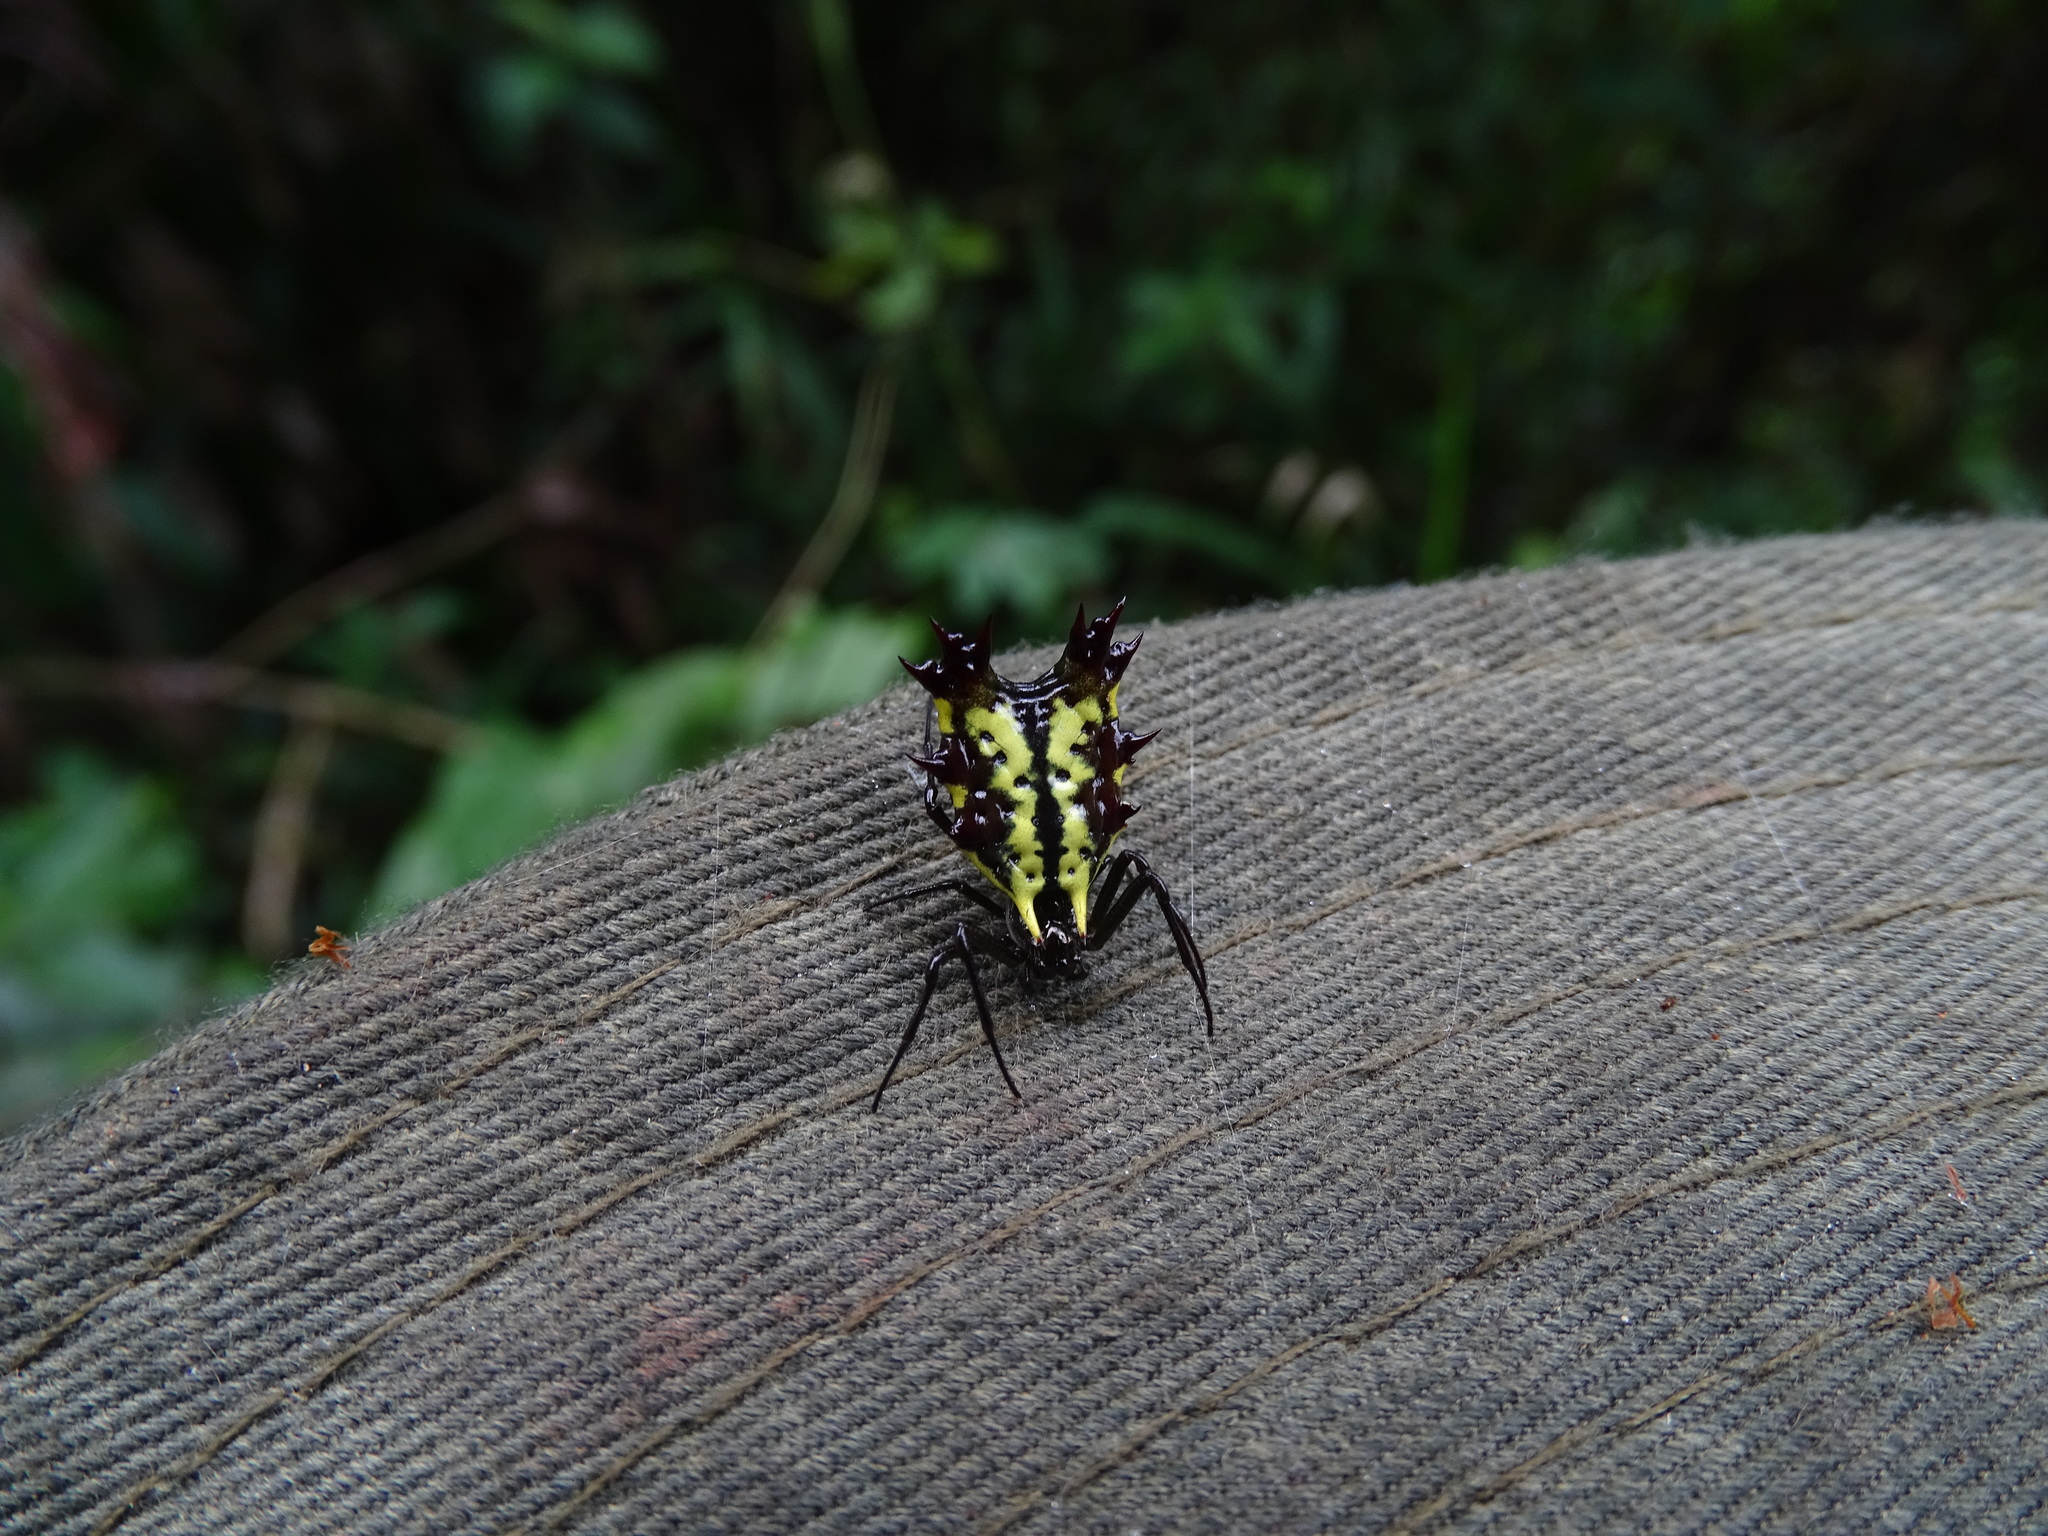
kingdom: Animalia
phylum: Arthropoda
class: Arachnida
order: Araneae
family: Araneidae
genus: Micrathena
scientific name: Micrathena decorata
